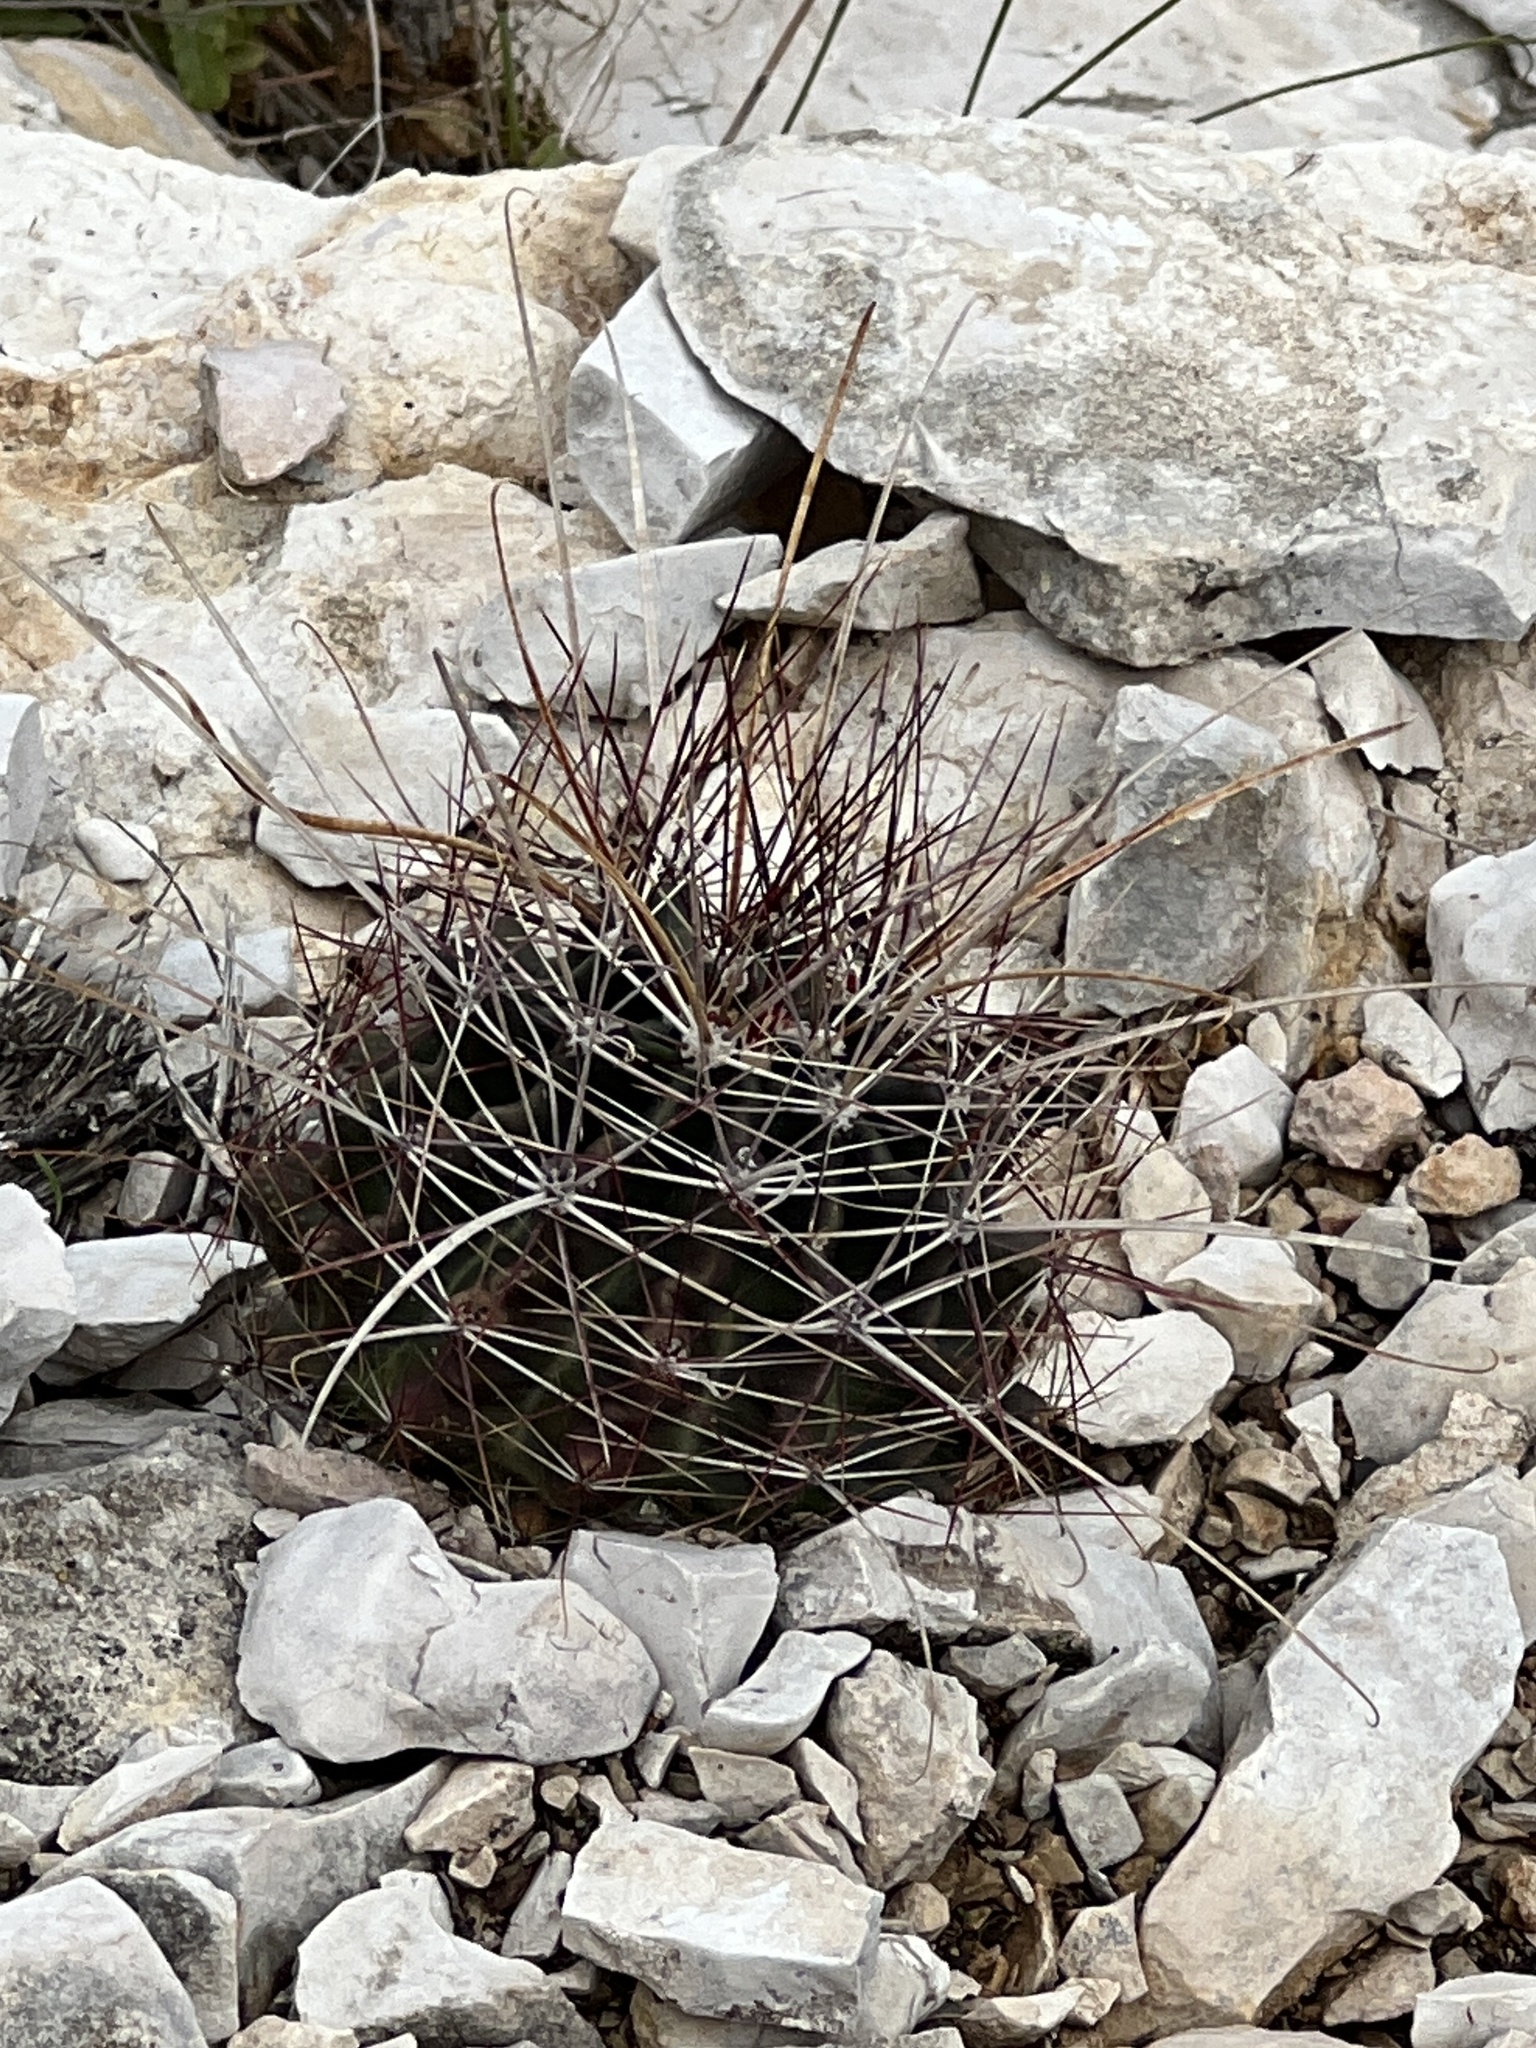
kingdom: Plantae
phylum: Tracheophyta
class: Magnoliopsida
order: Caryophyllales
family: Cactaceae
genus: Bisnaga
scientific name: Bisnaga hamatacantha
